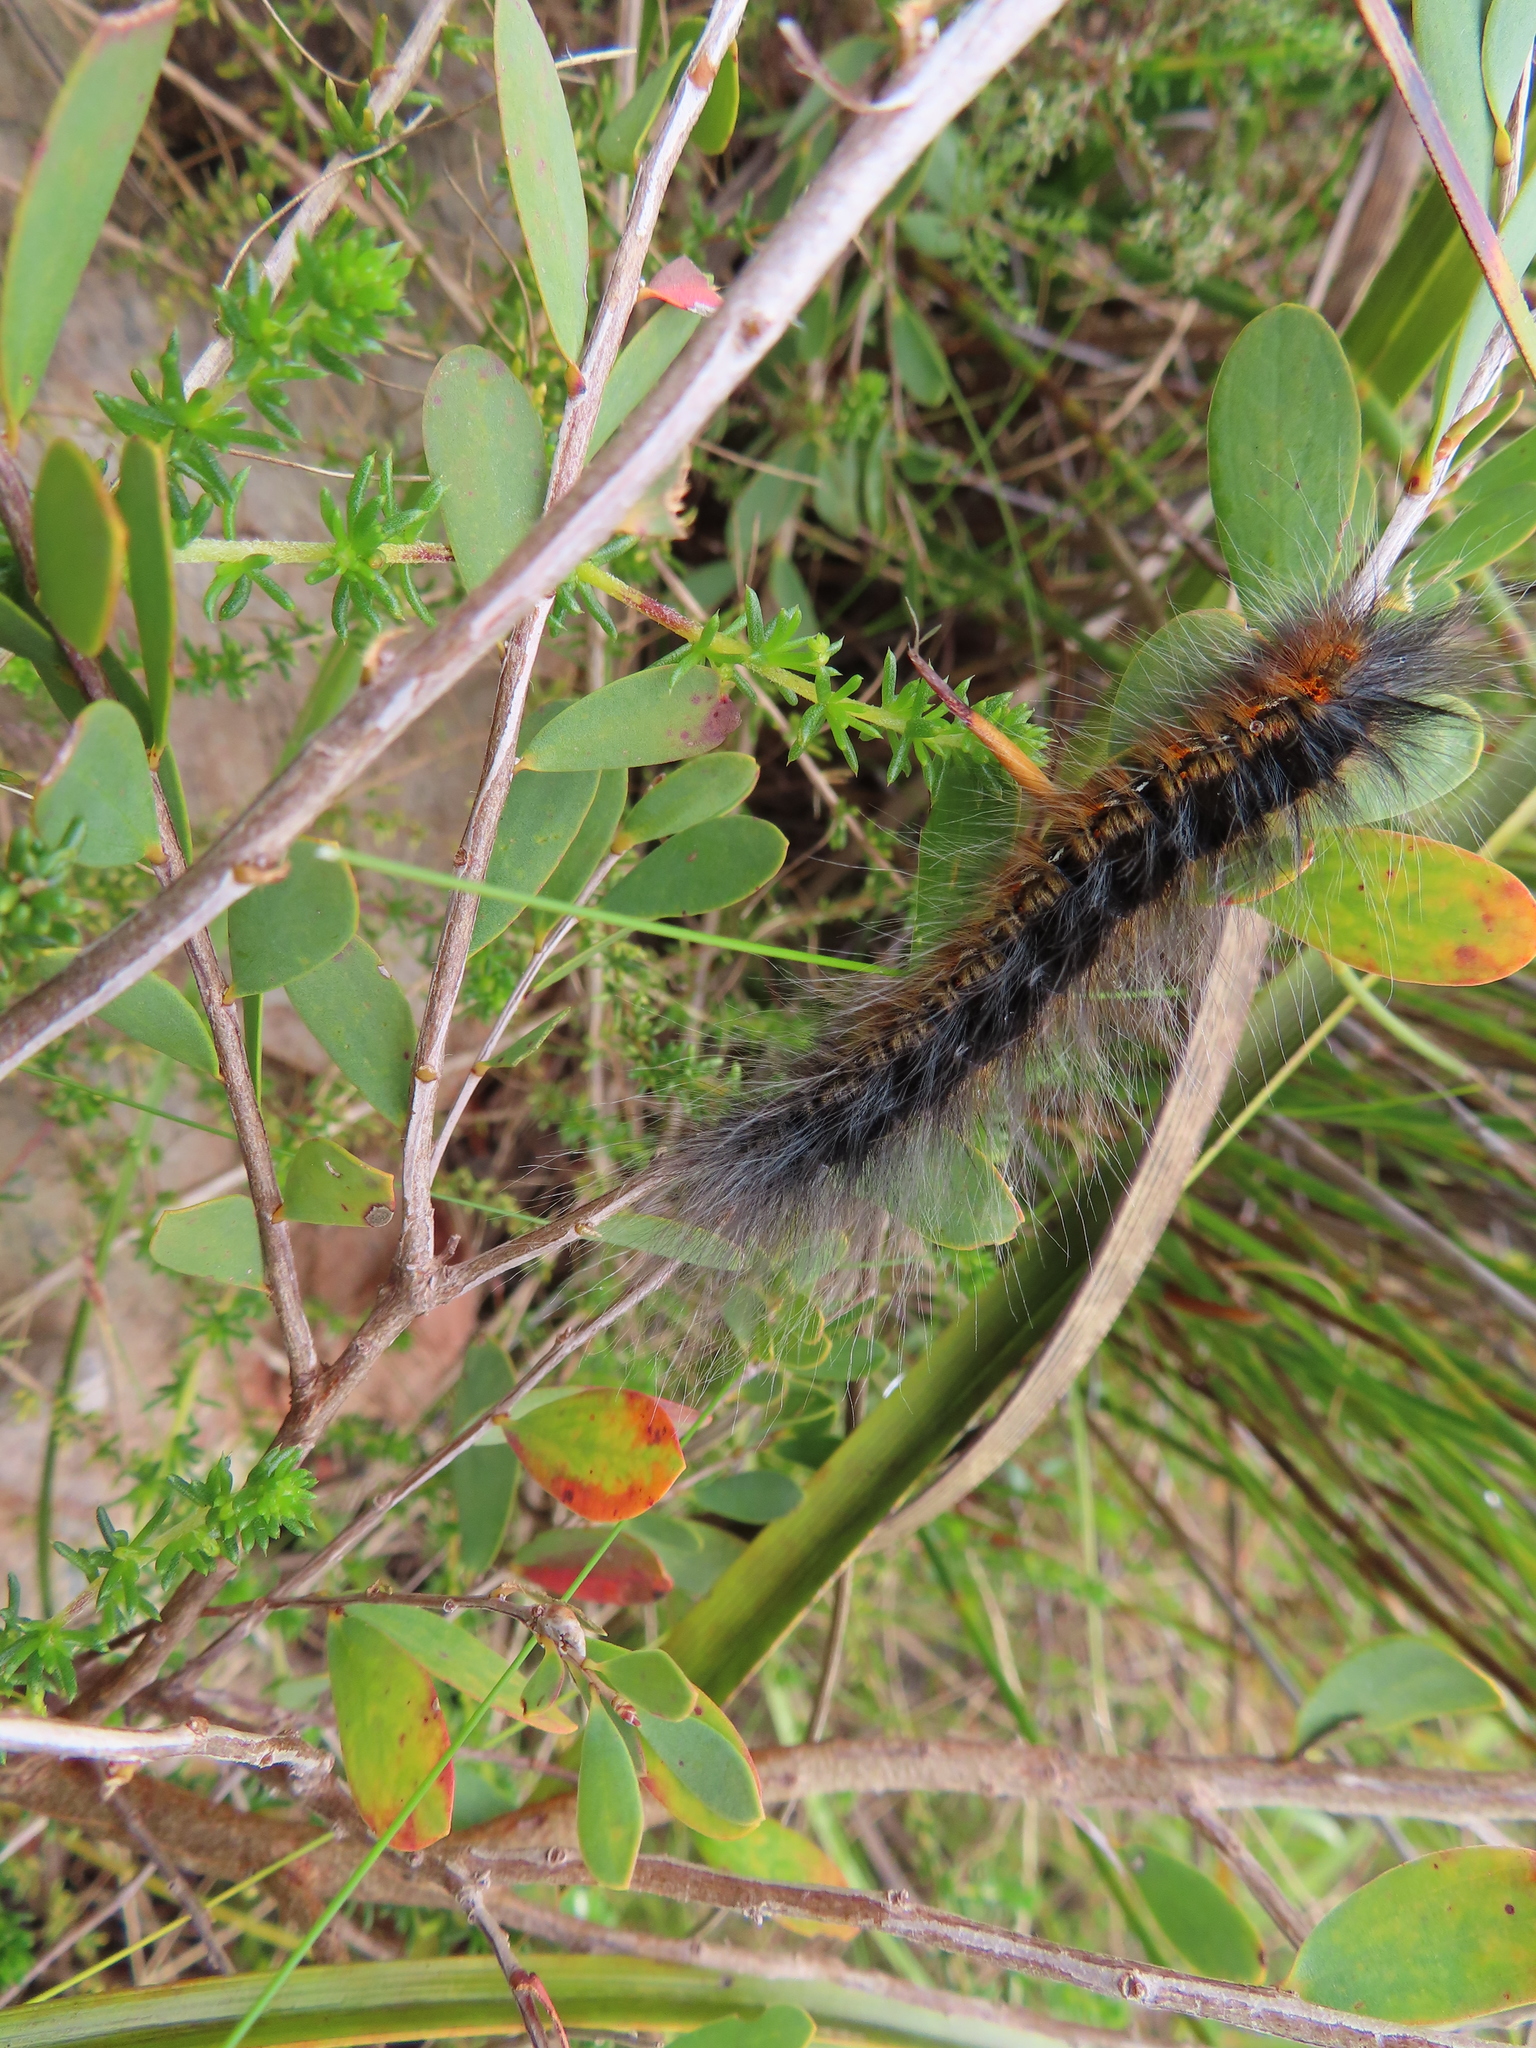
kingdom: Animalia
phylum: Arthropoda
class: Insecta
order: Lepidoptera
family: Lasiocampidae
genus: Mesocelis
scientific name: Mesocelis monticola
